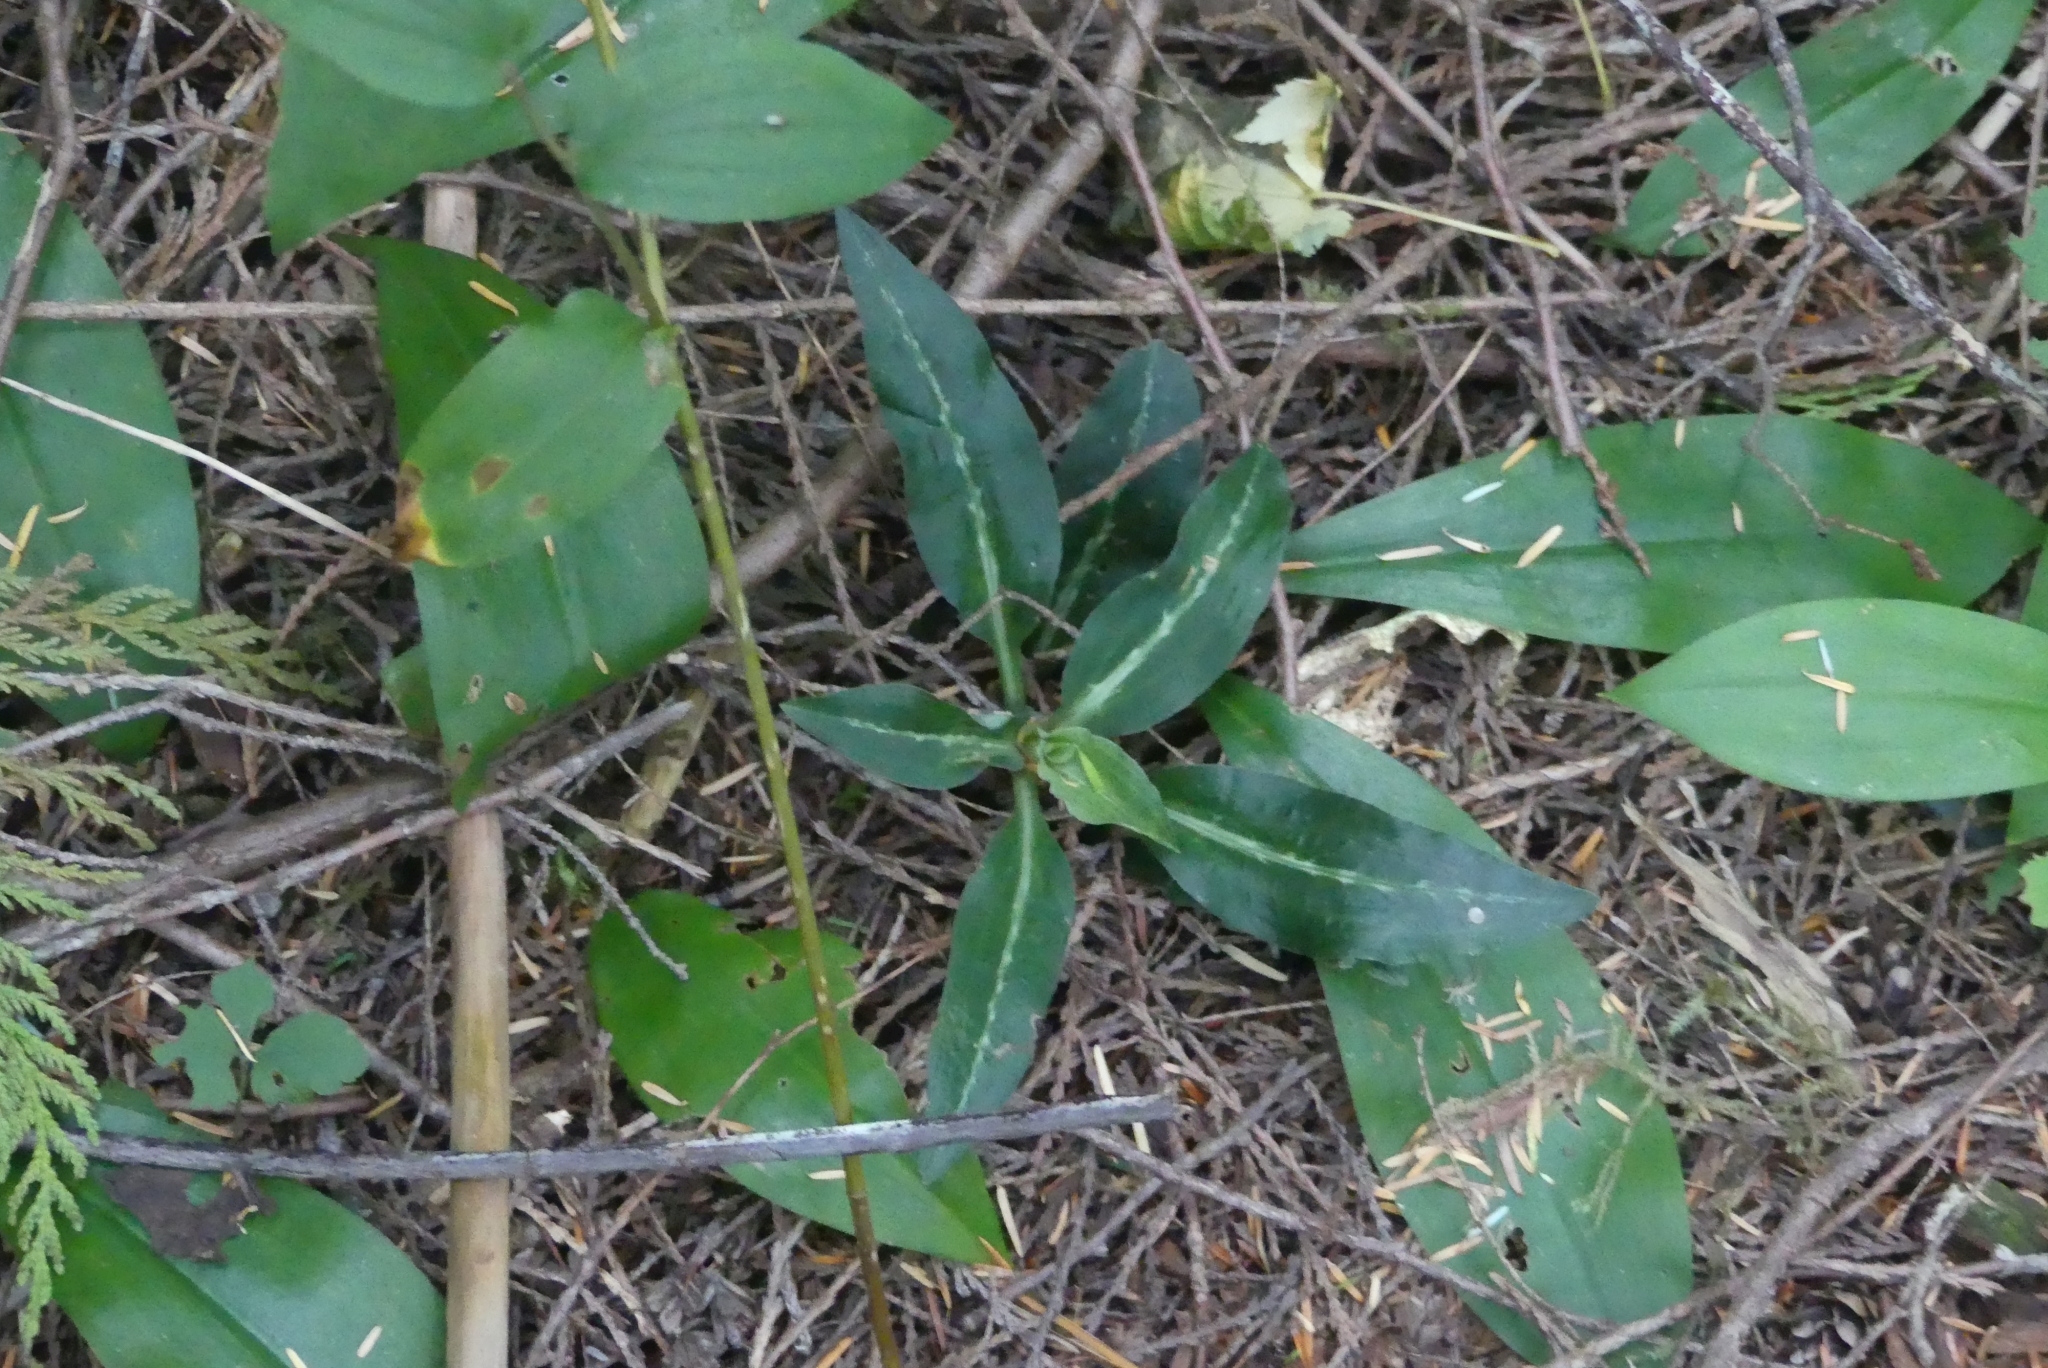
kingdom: Plantae
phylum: Tracheophyta
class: Liliopsida
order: Asparagales
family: Orchidaceae
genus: Goodyera
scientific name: Goodyera oblongifolia
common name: Giant rattlesnake-plantain
